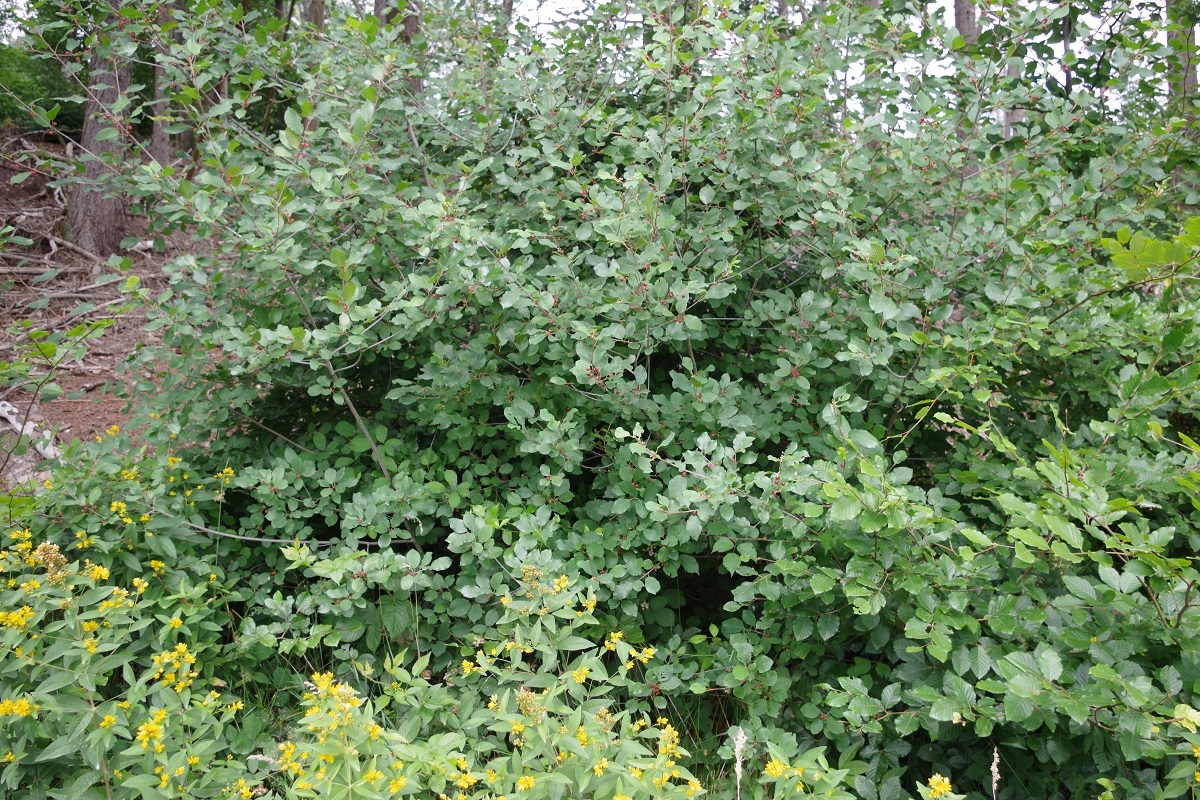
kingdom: Plantae
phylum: Tracheophyta
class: Magnoliopsida
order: Rosales
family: Rhamnaceae
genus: Frangula
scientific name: Frangula alnus
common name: Alder buckthorn
